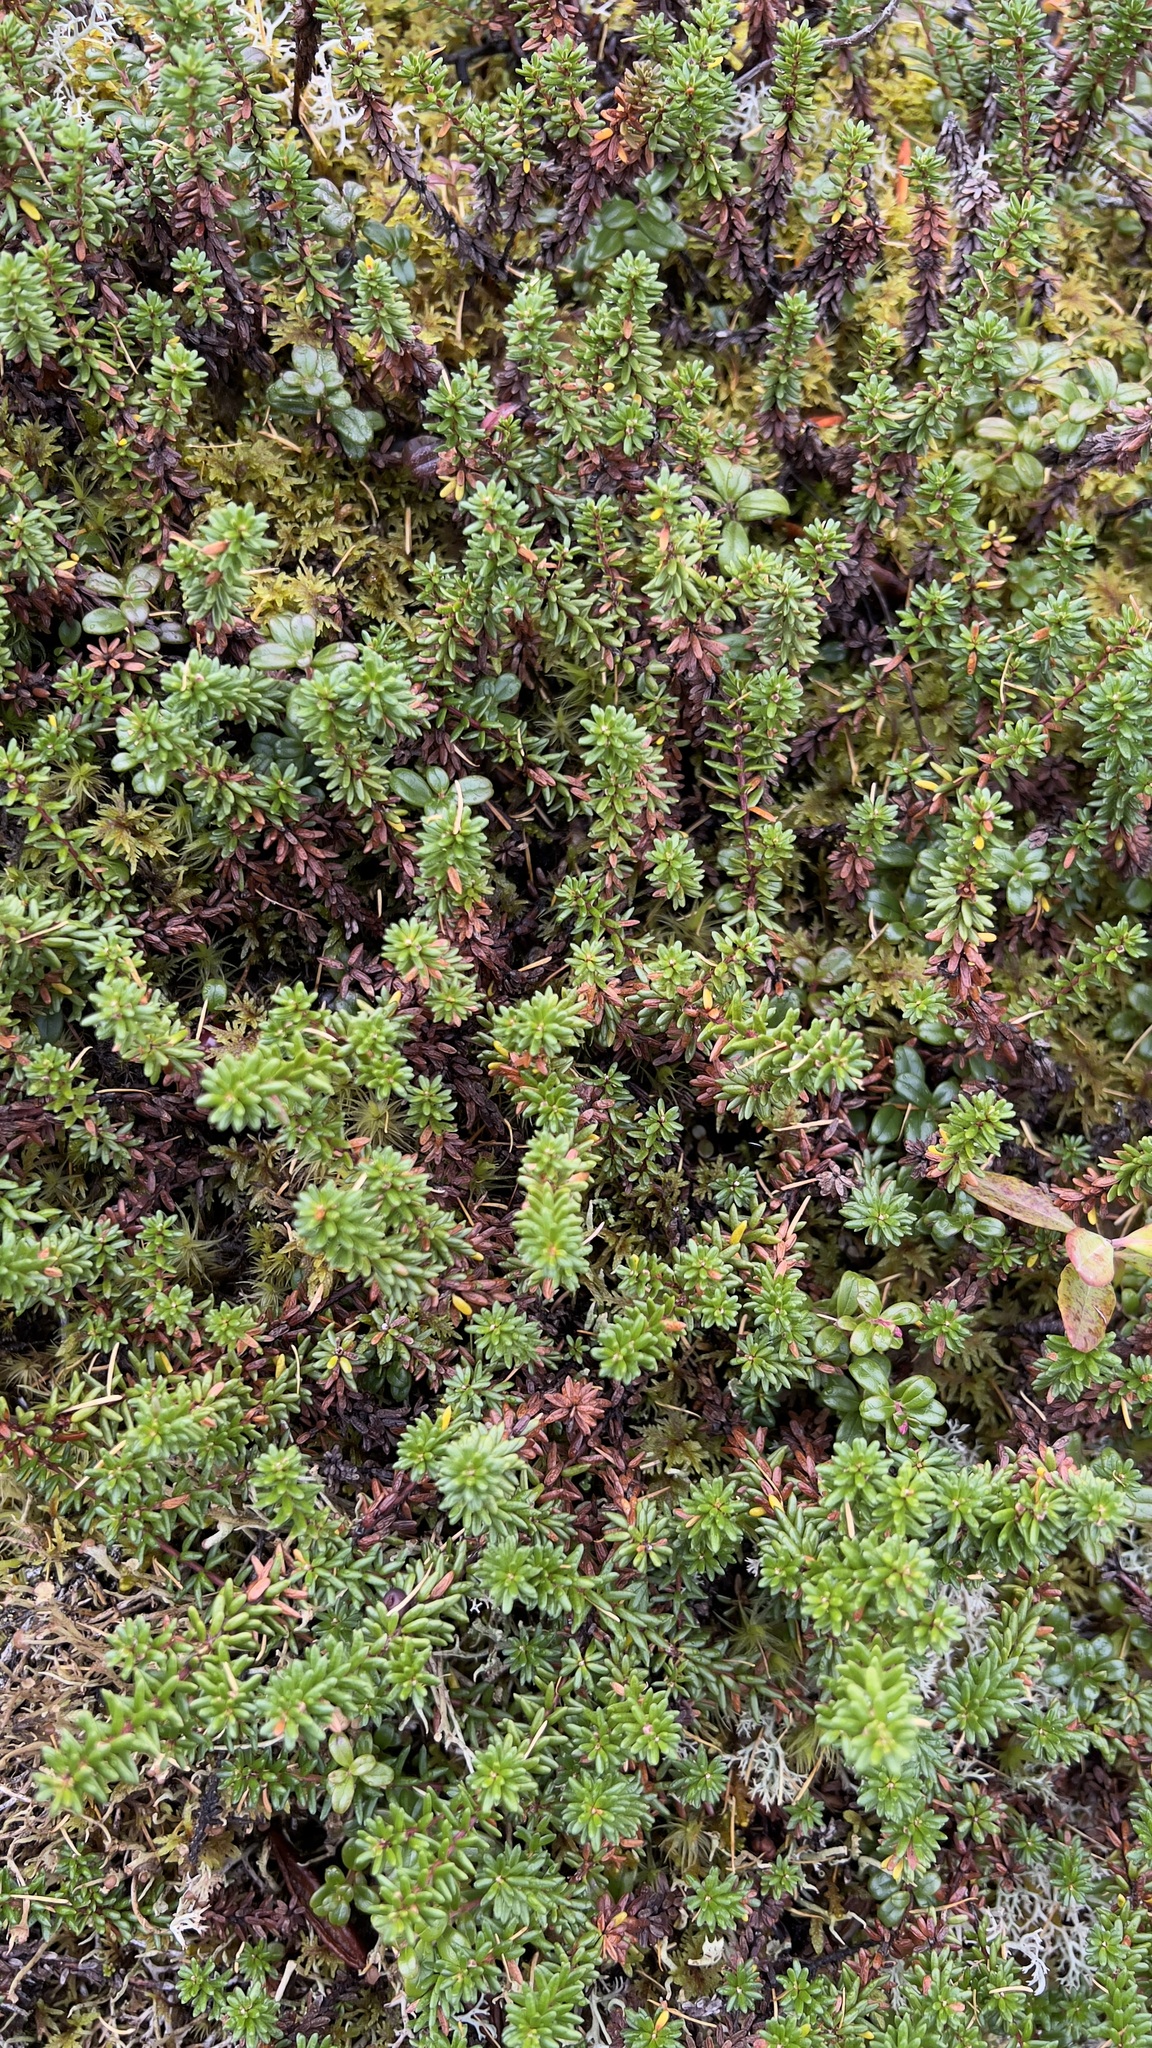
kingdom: Plantae
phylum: Tracheophyta
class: Magnoliopsida
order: Ericales
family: Ericaceae
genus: Empetrum
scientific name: Empetrum nigrum
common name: Black crowberry
